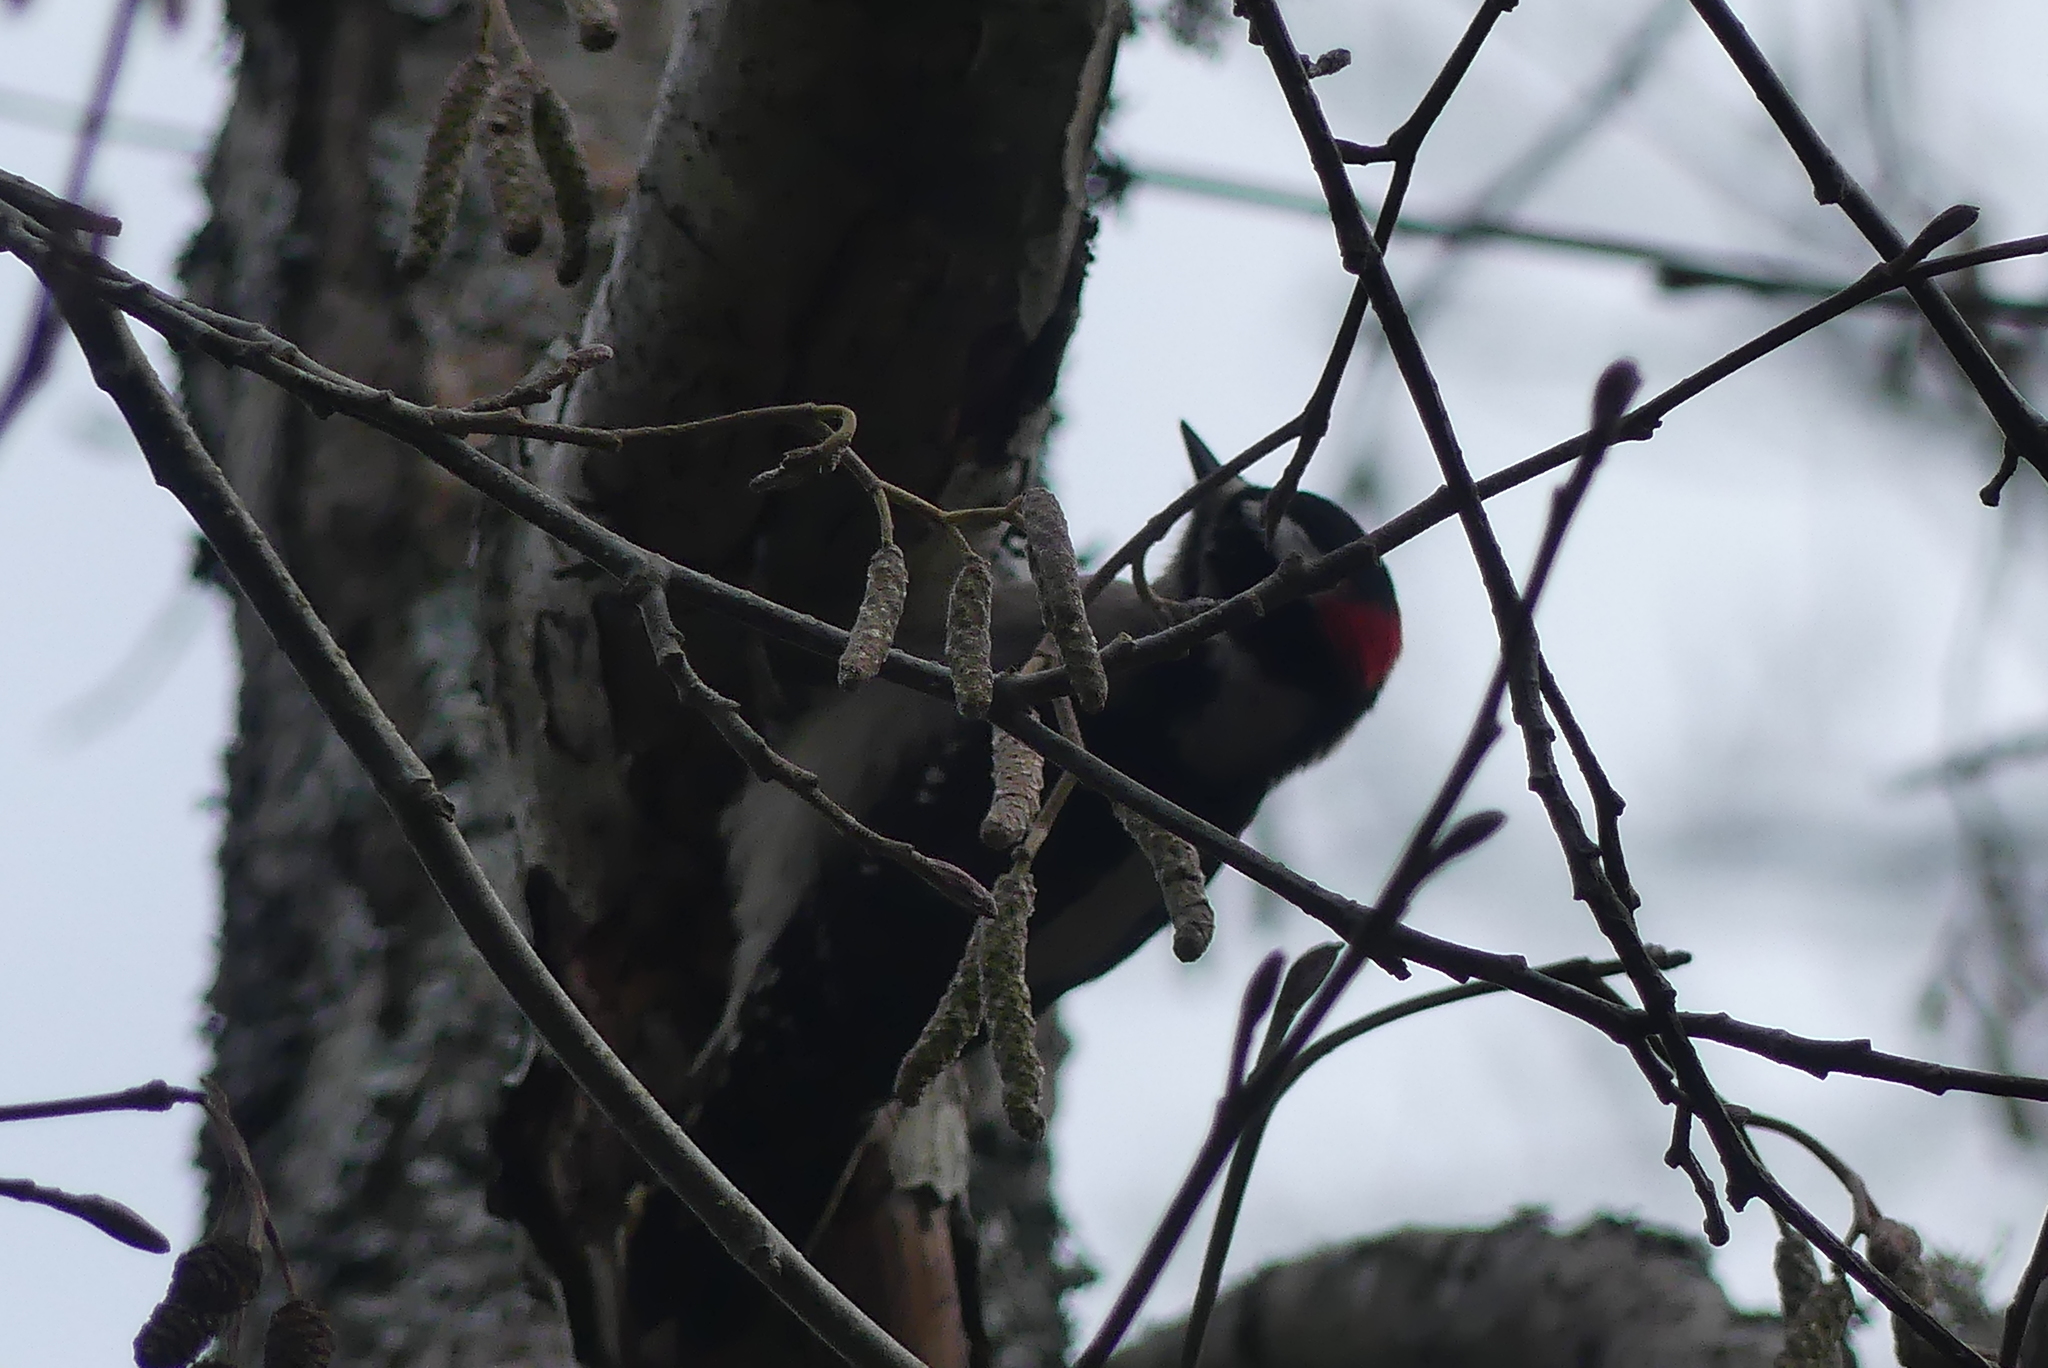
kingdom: Animalia
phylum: Chordata
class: Aves
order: Piciformes
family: Picidae
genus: Dryobates
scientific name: Dryobates pubescens
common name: Downy woodpecker
